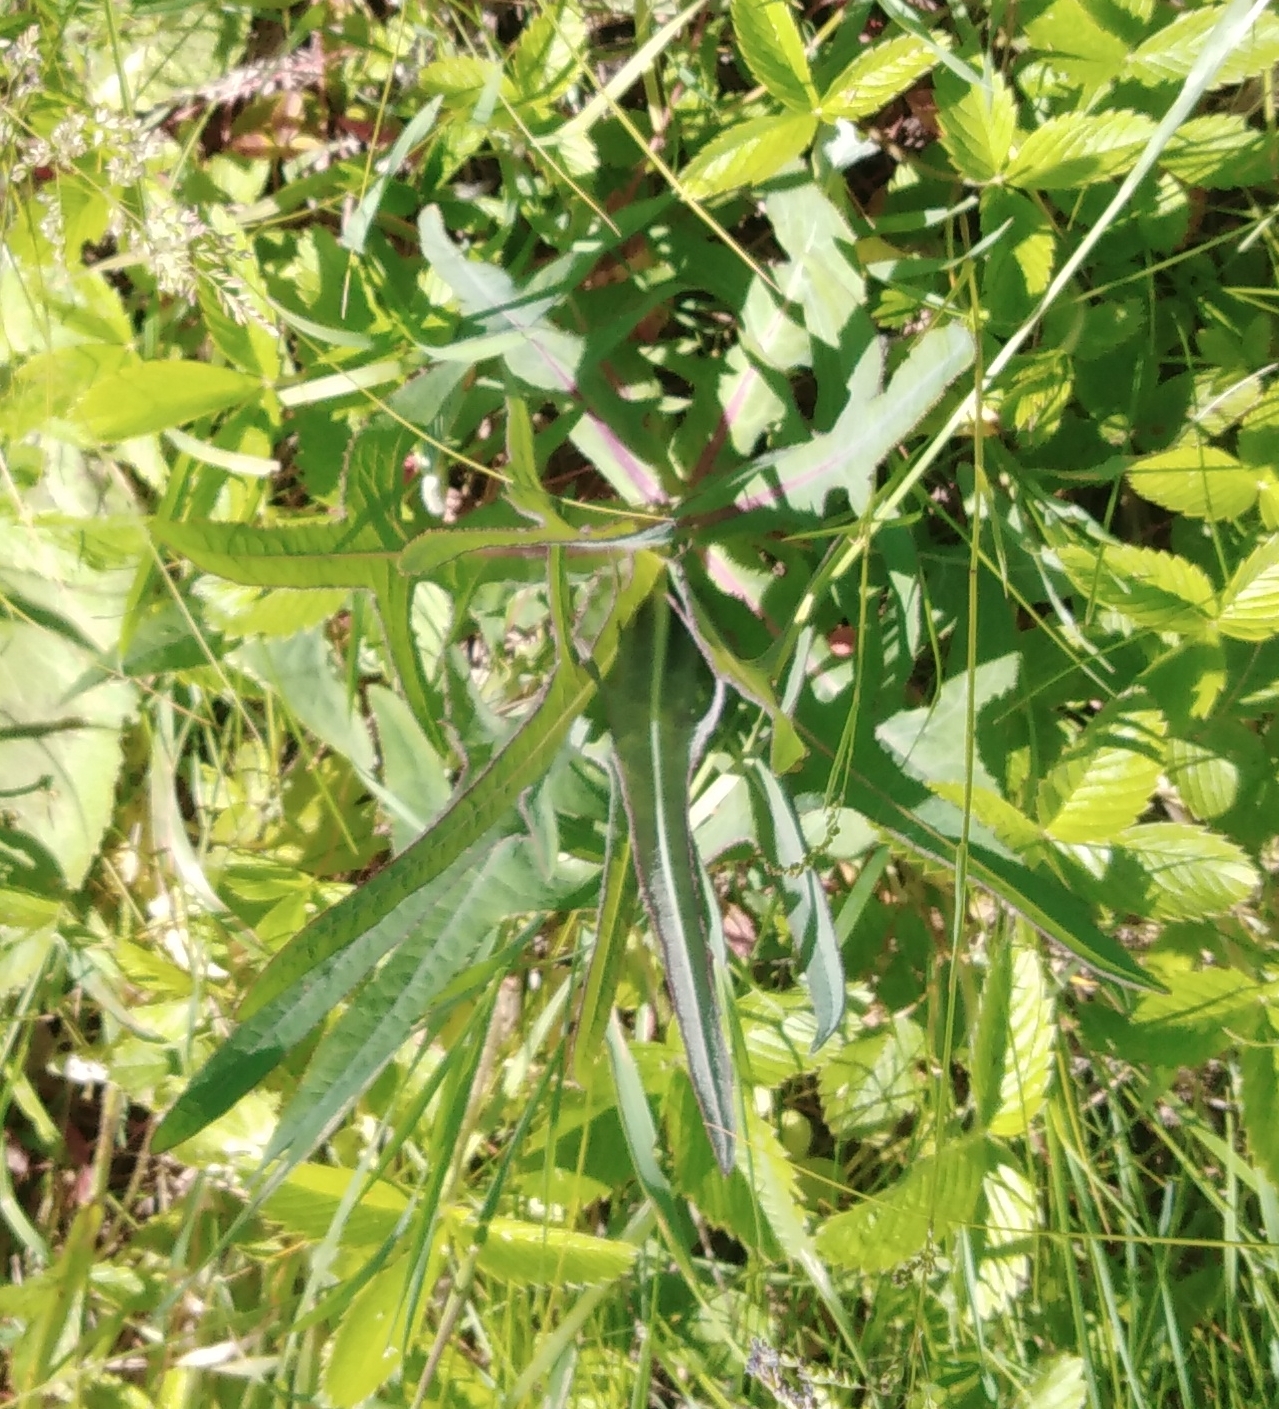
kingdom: Plantae
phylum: Tracheophyta
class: Magnoliopsida
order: Asterales
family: Asteraceae
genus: Sonchus
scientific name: Sonchus palustris
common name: Marsh sow-thistle
